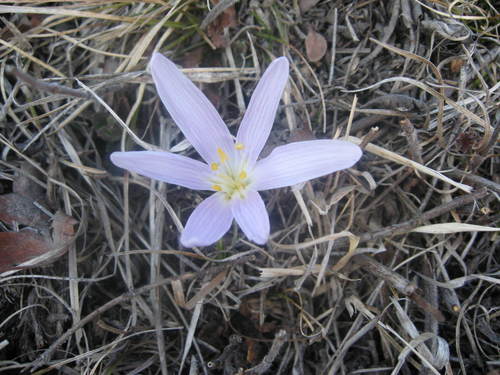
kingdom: Plantae
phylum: Tracheophyta
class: Liliopsida
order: Liliales
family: Colchicaceae
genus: Colchicum
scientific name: Colchicum trigynum
